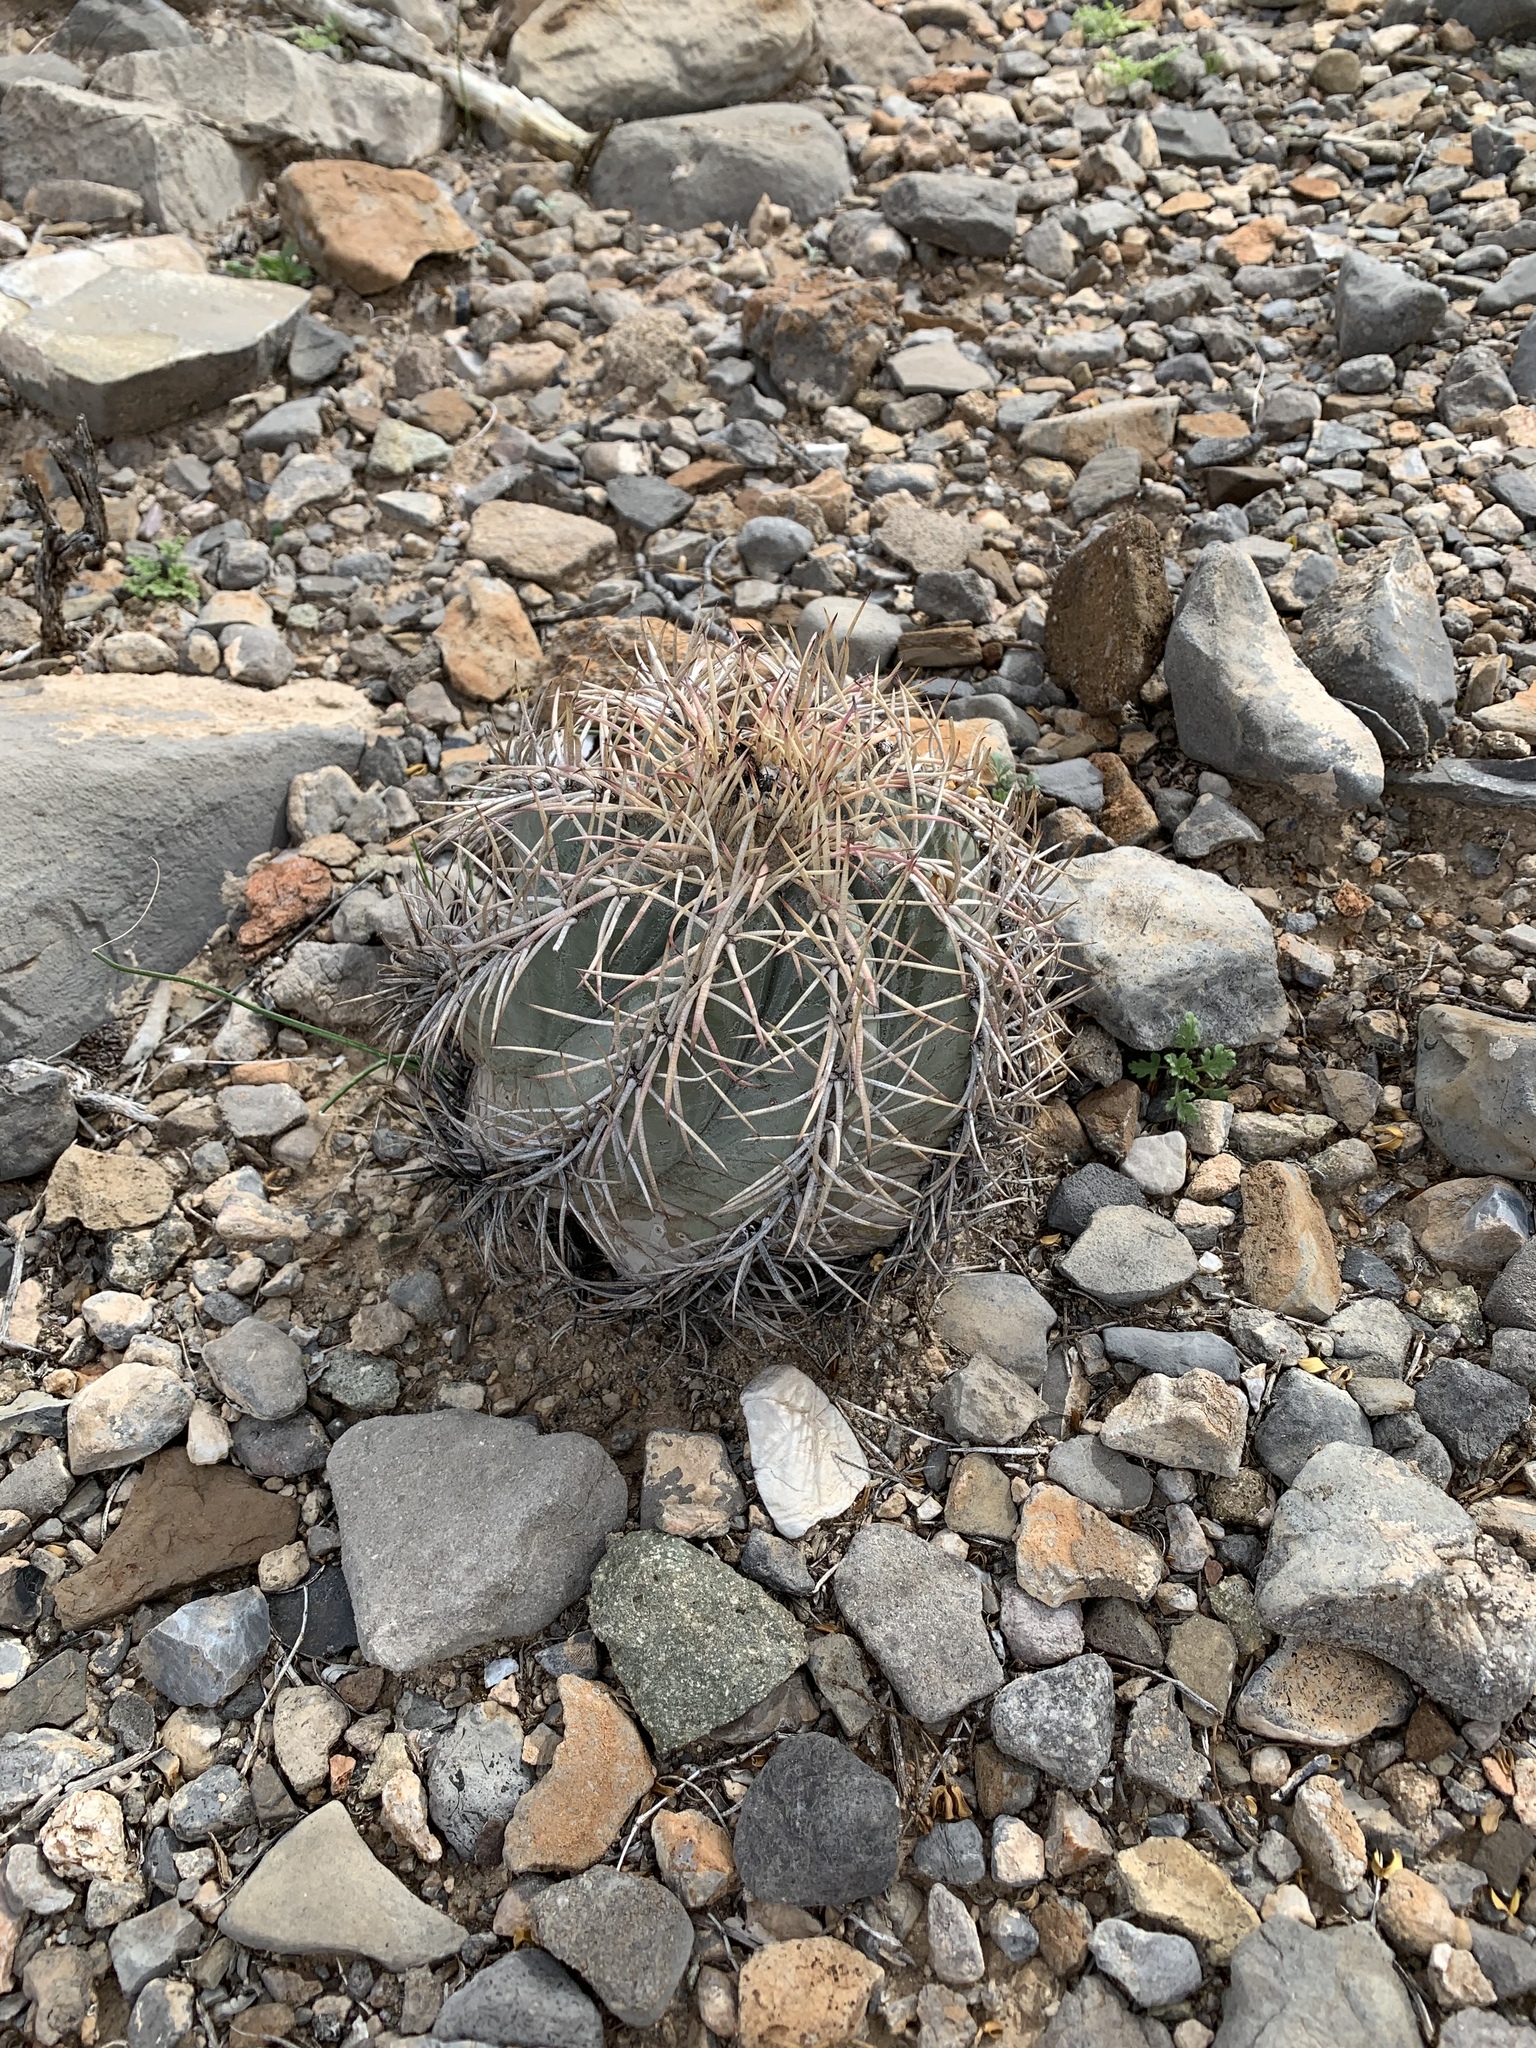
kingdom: Plantae
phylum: Tracheophyta
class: Magnoliopsida
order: Caryophyllales
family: Cactaceae
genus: Echinocactus
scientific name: Echinocactus horizonthalonius
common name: Devilshead
